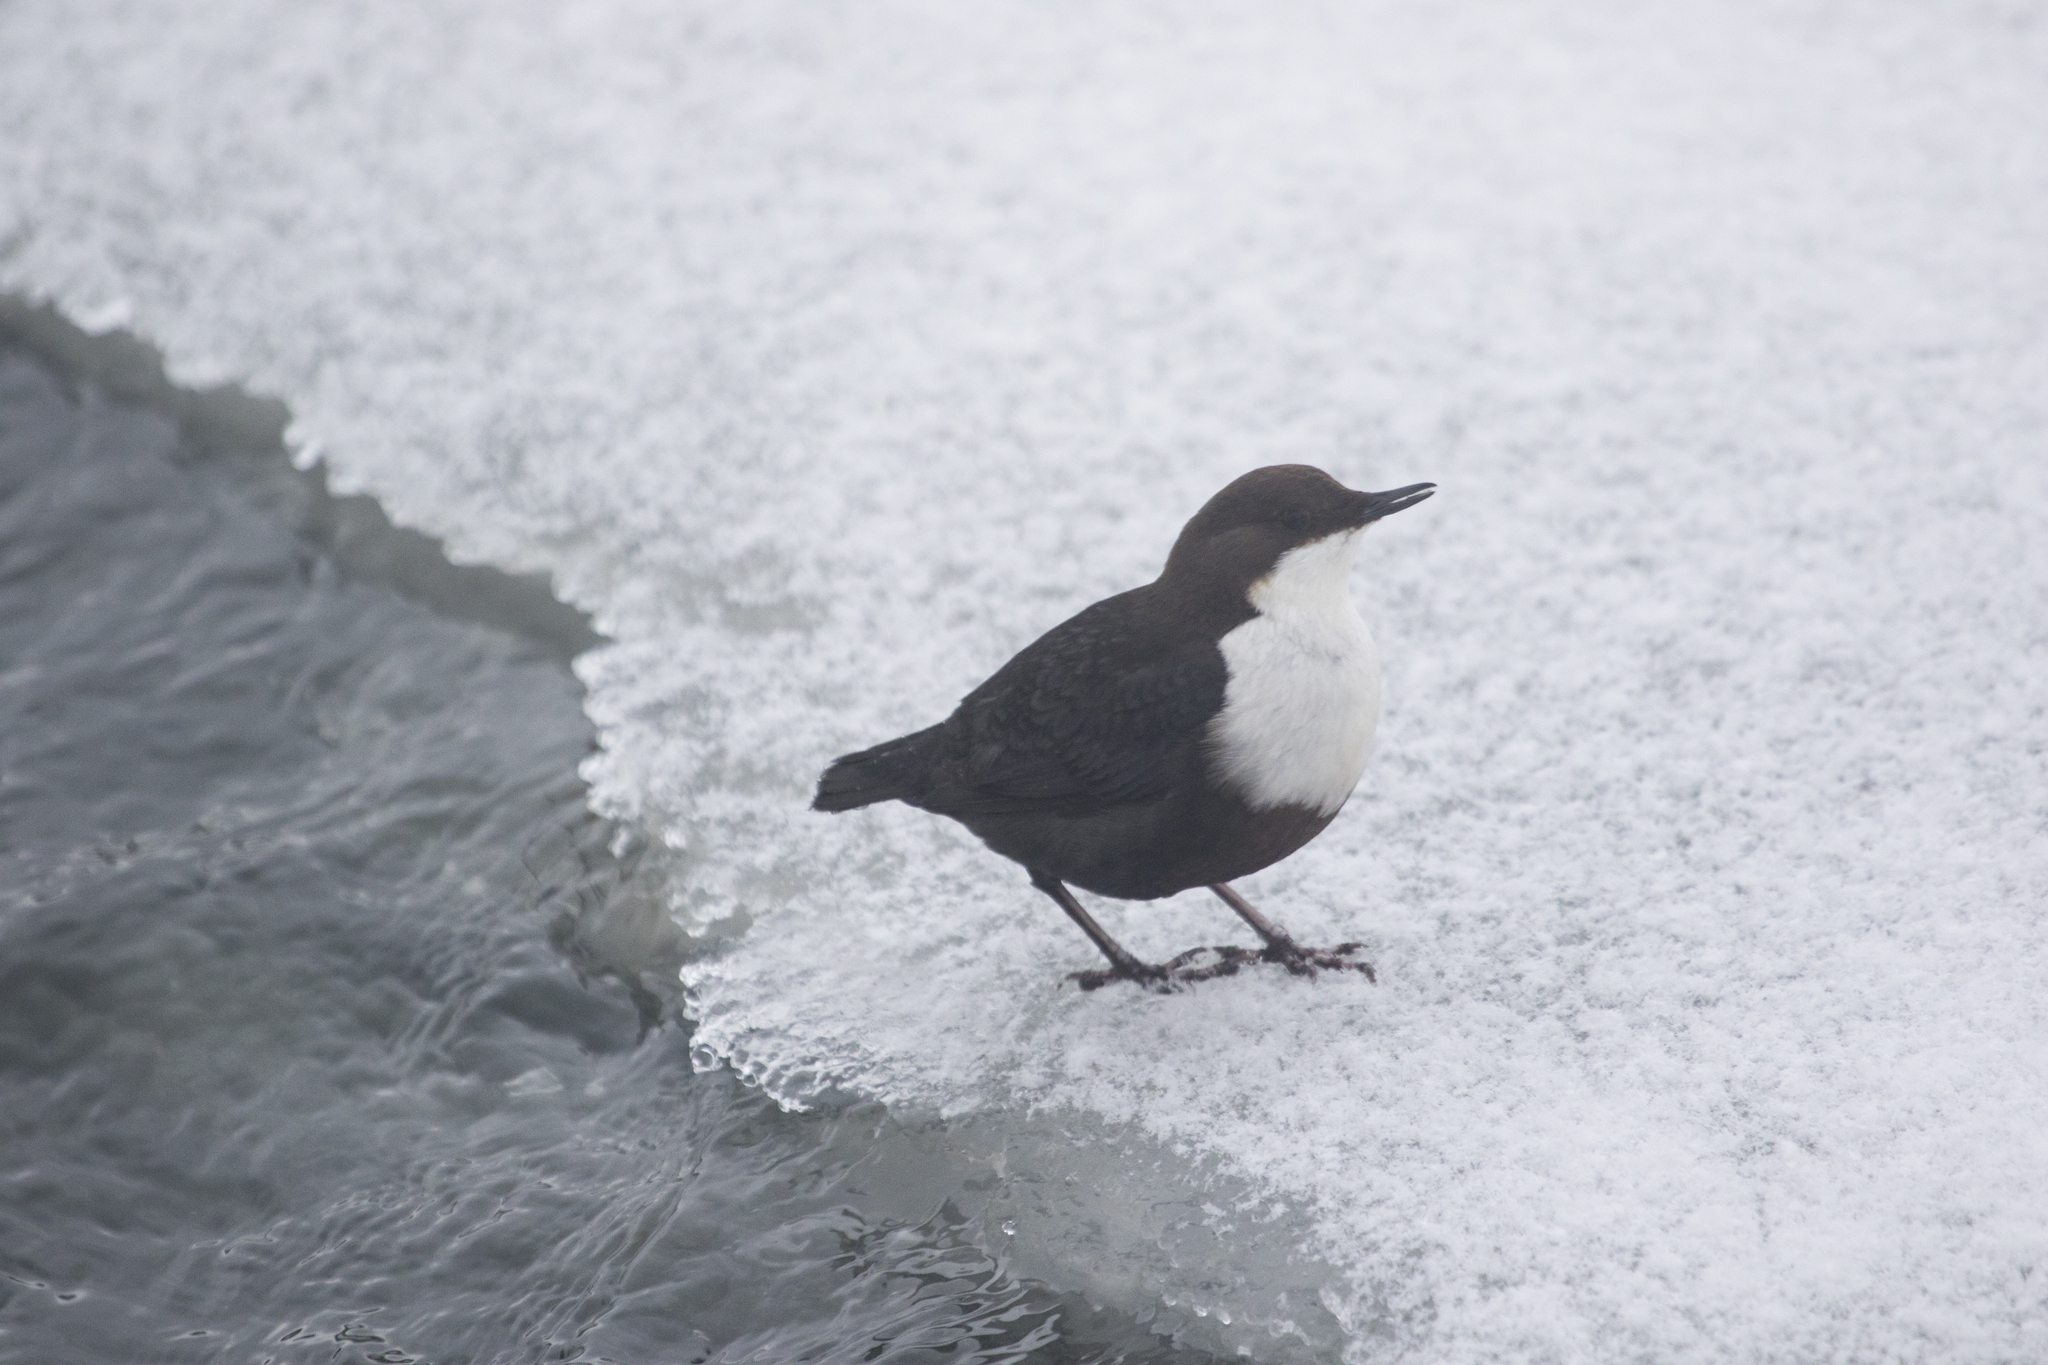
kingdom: Animalia
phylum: Chordata
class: Aves
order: Passeriformes
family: Cinclidae
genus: Cinclus
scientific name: Cinclus cinclus
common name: White-throated dipper
